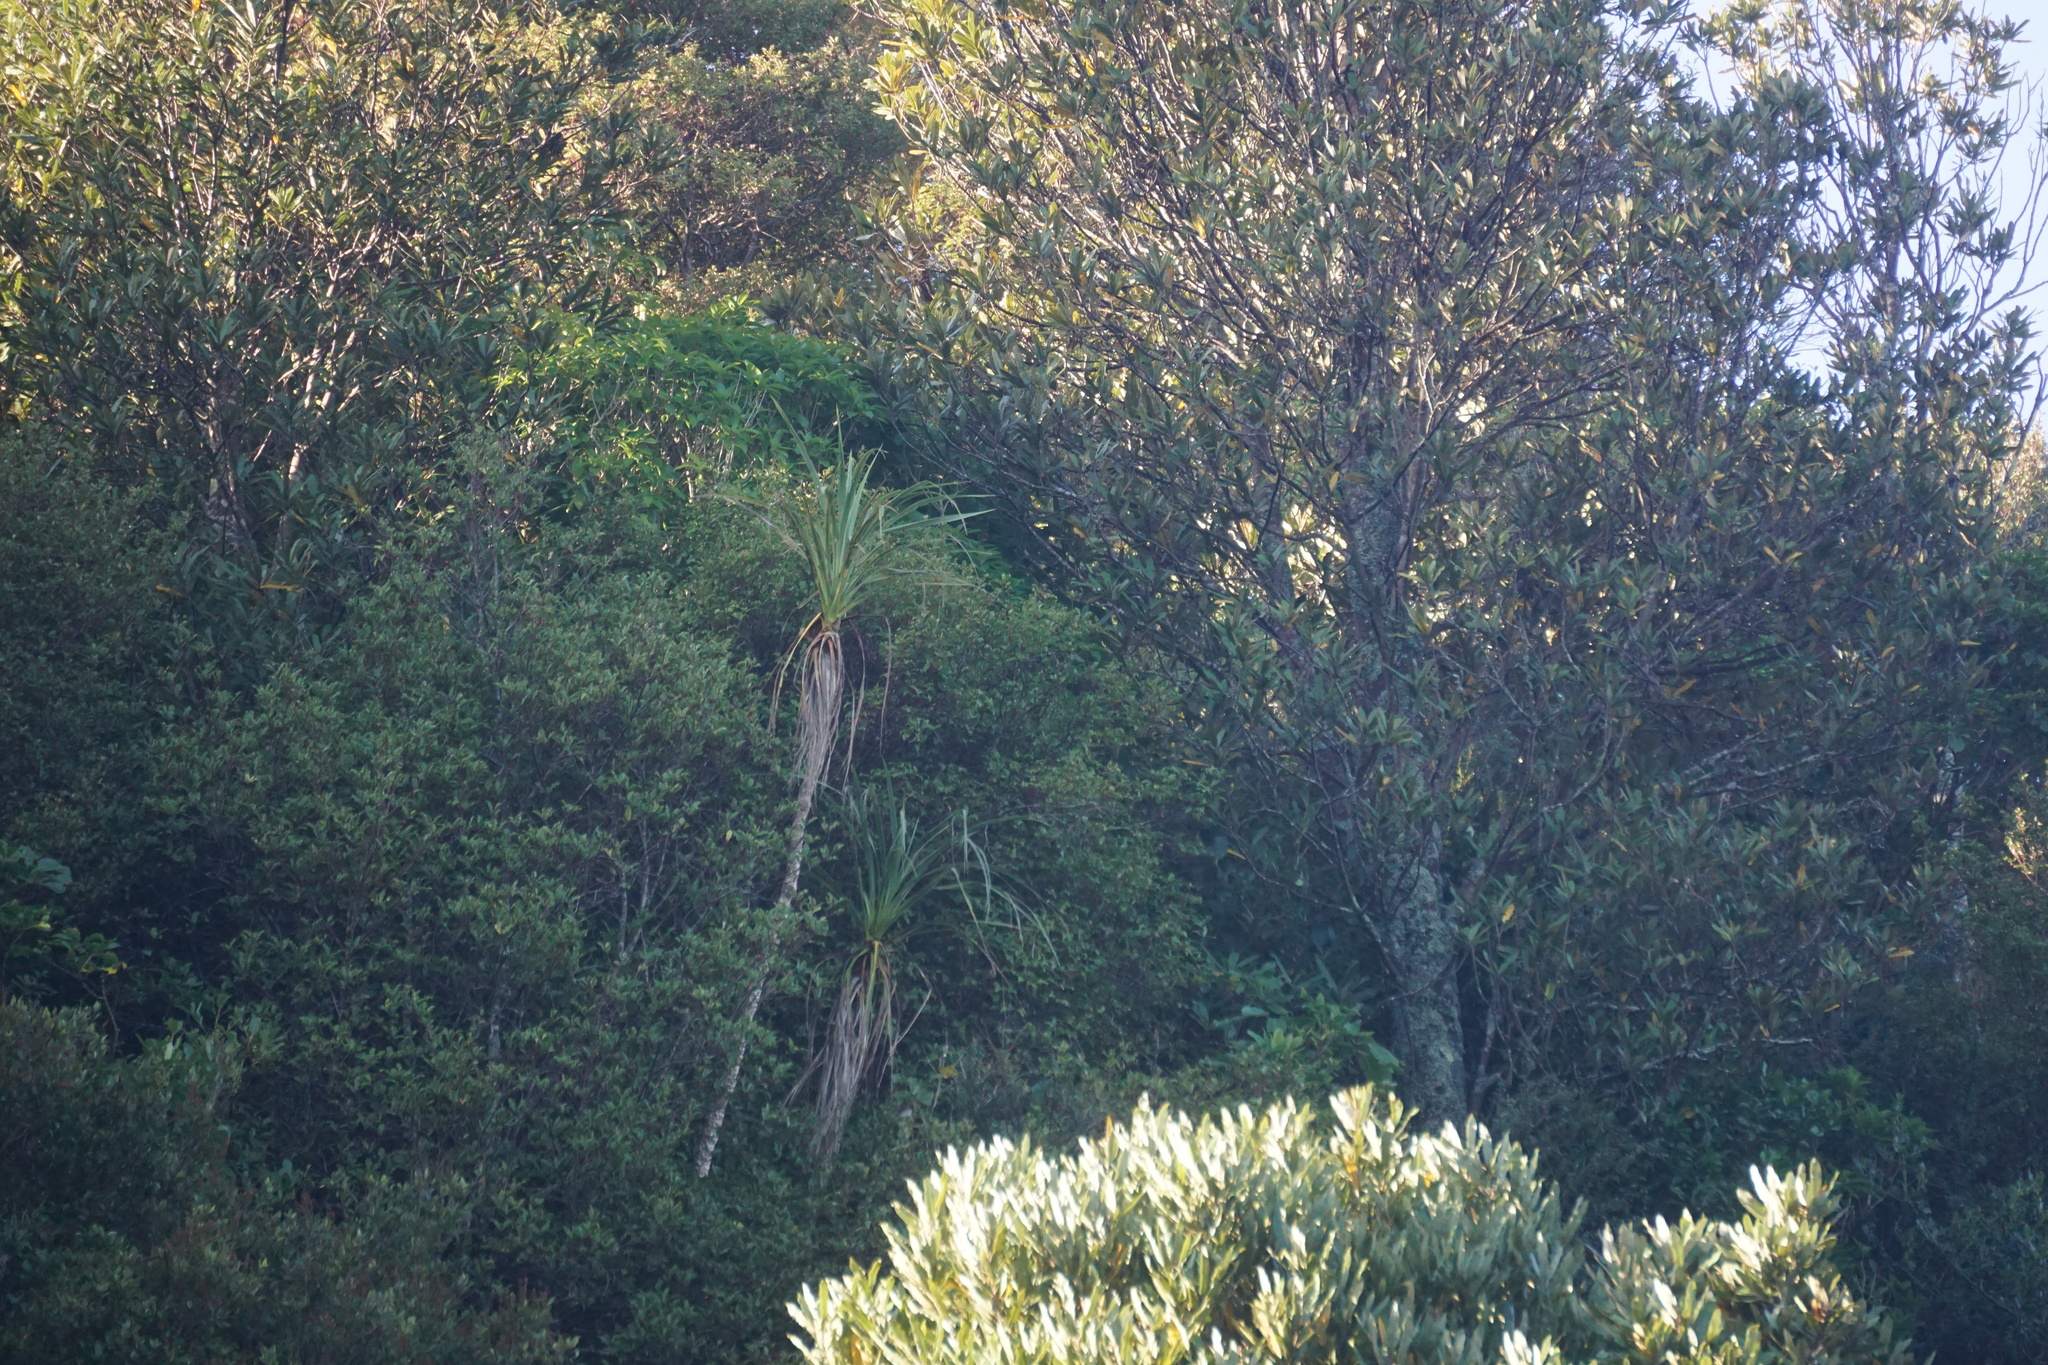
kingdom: Plantae
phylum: Tracheophyta
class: Liliopsida
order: Asparagales
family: Asparagaceae
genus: Cordyline
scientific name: Cordyline banksii
